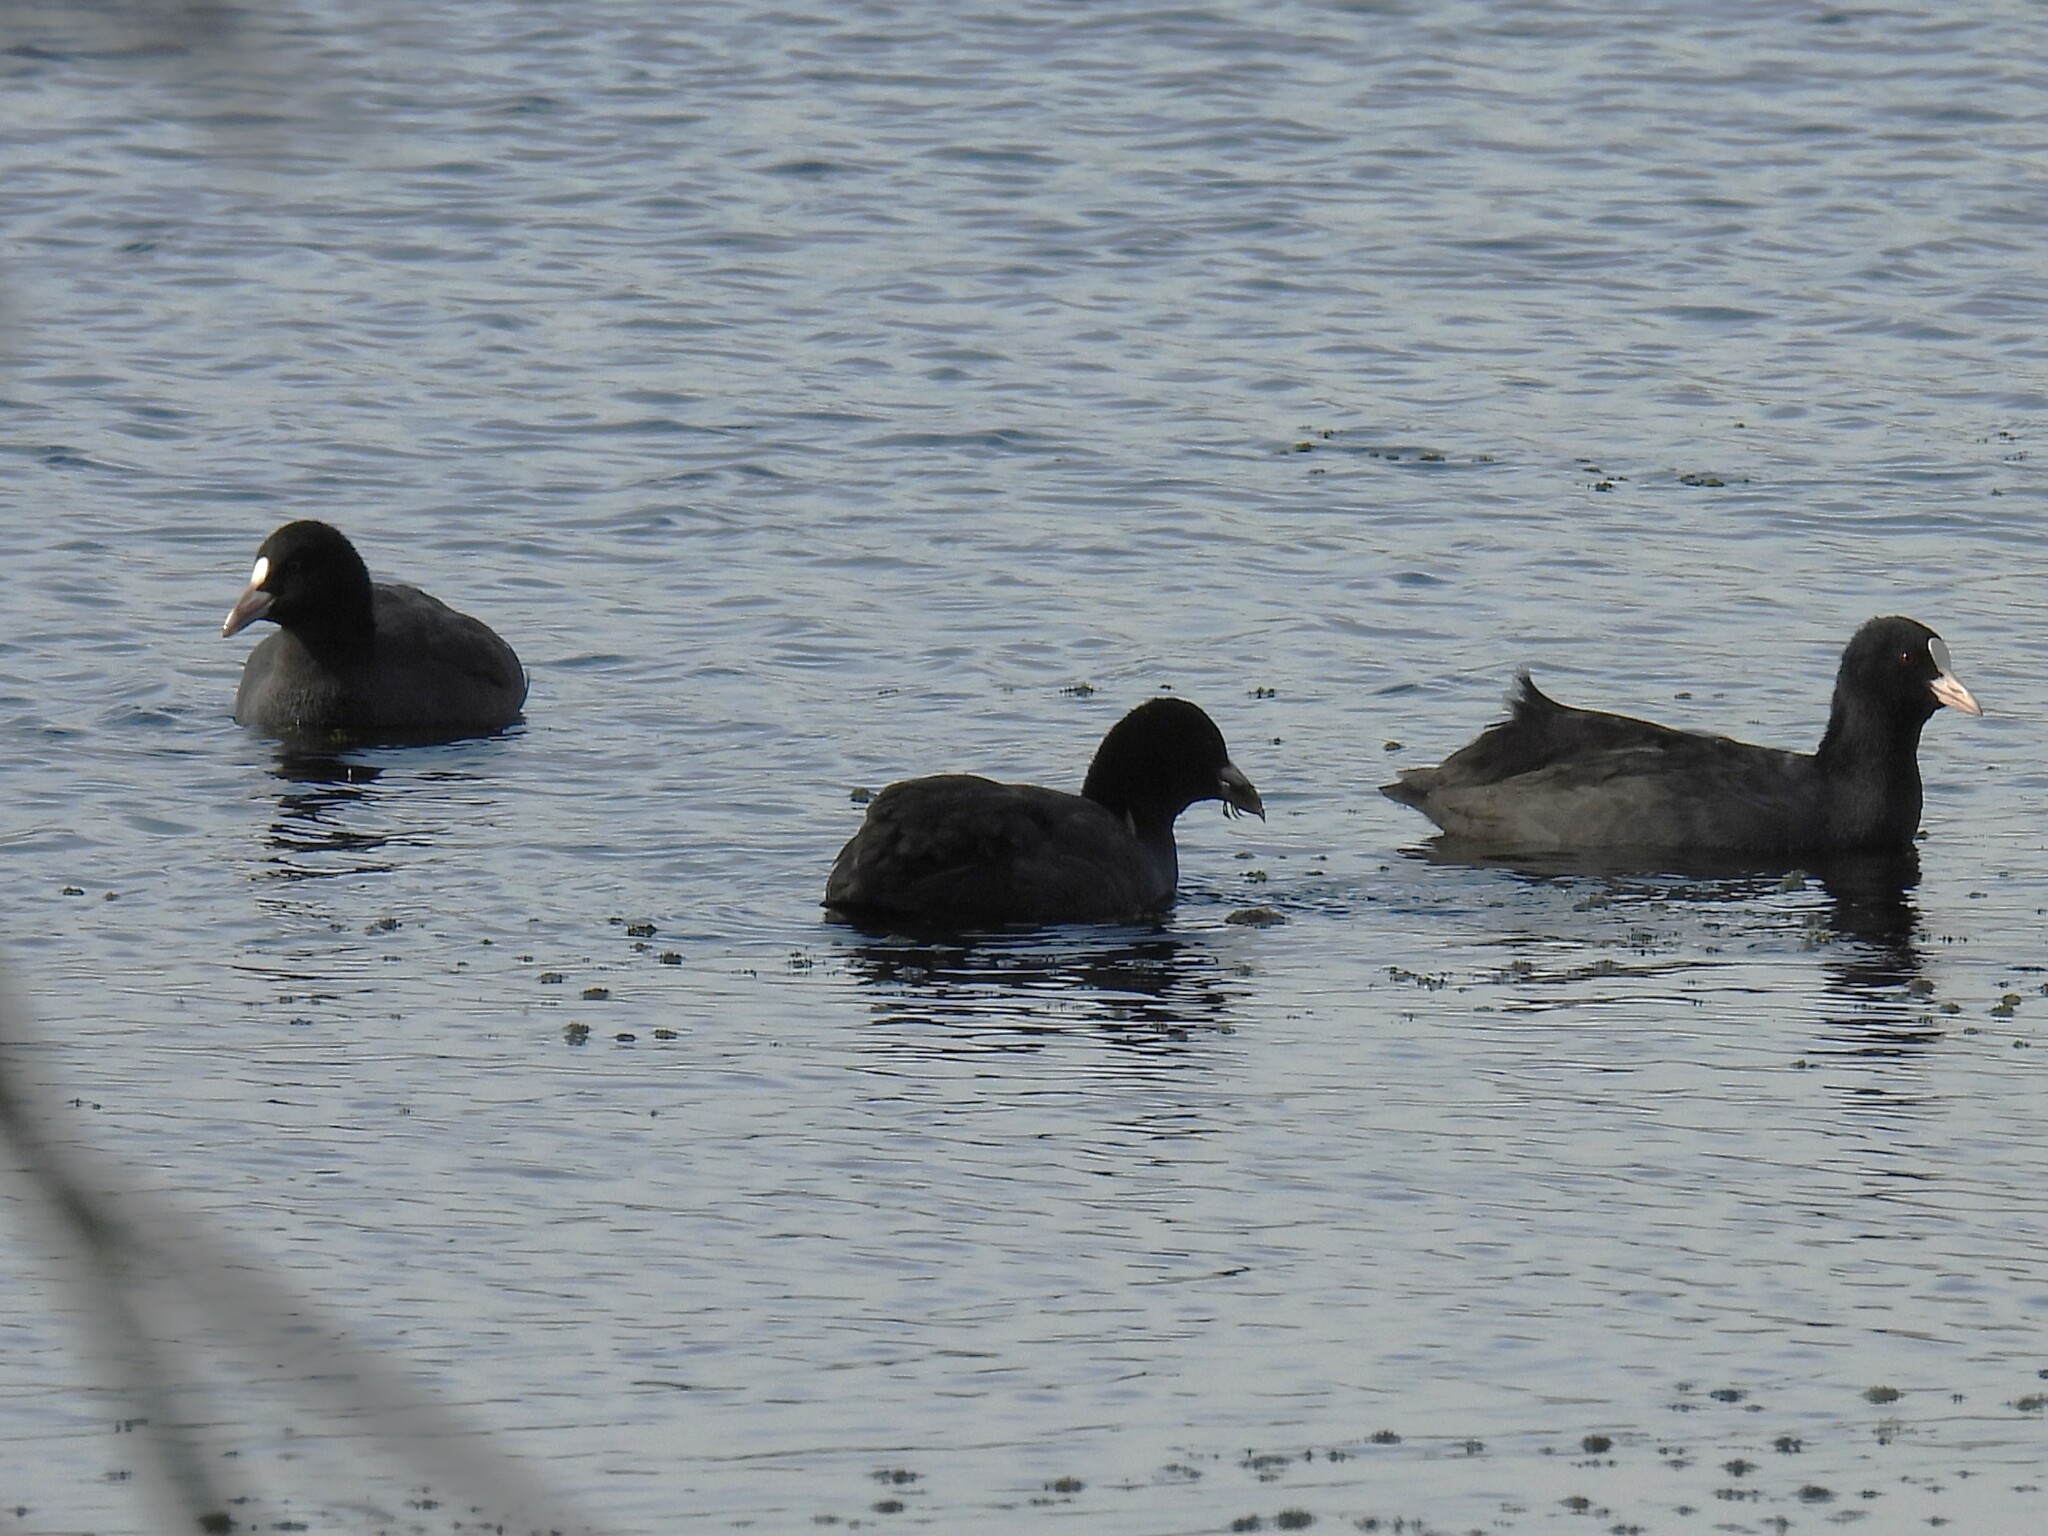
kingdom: Animalia
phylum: Chordata
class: Aves
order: Gruiformes
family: Rallidae
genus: Fulica
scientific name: Fulica atra
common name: Eurasian coot
